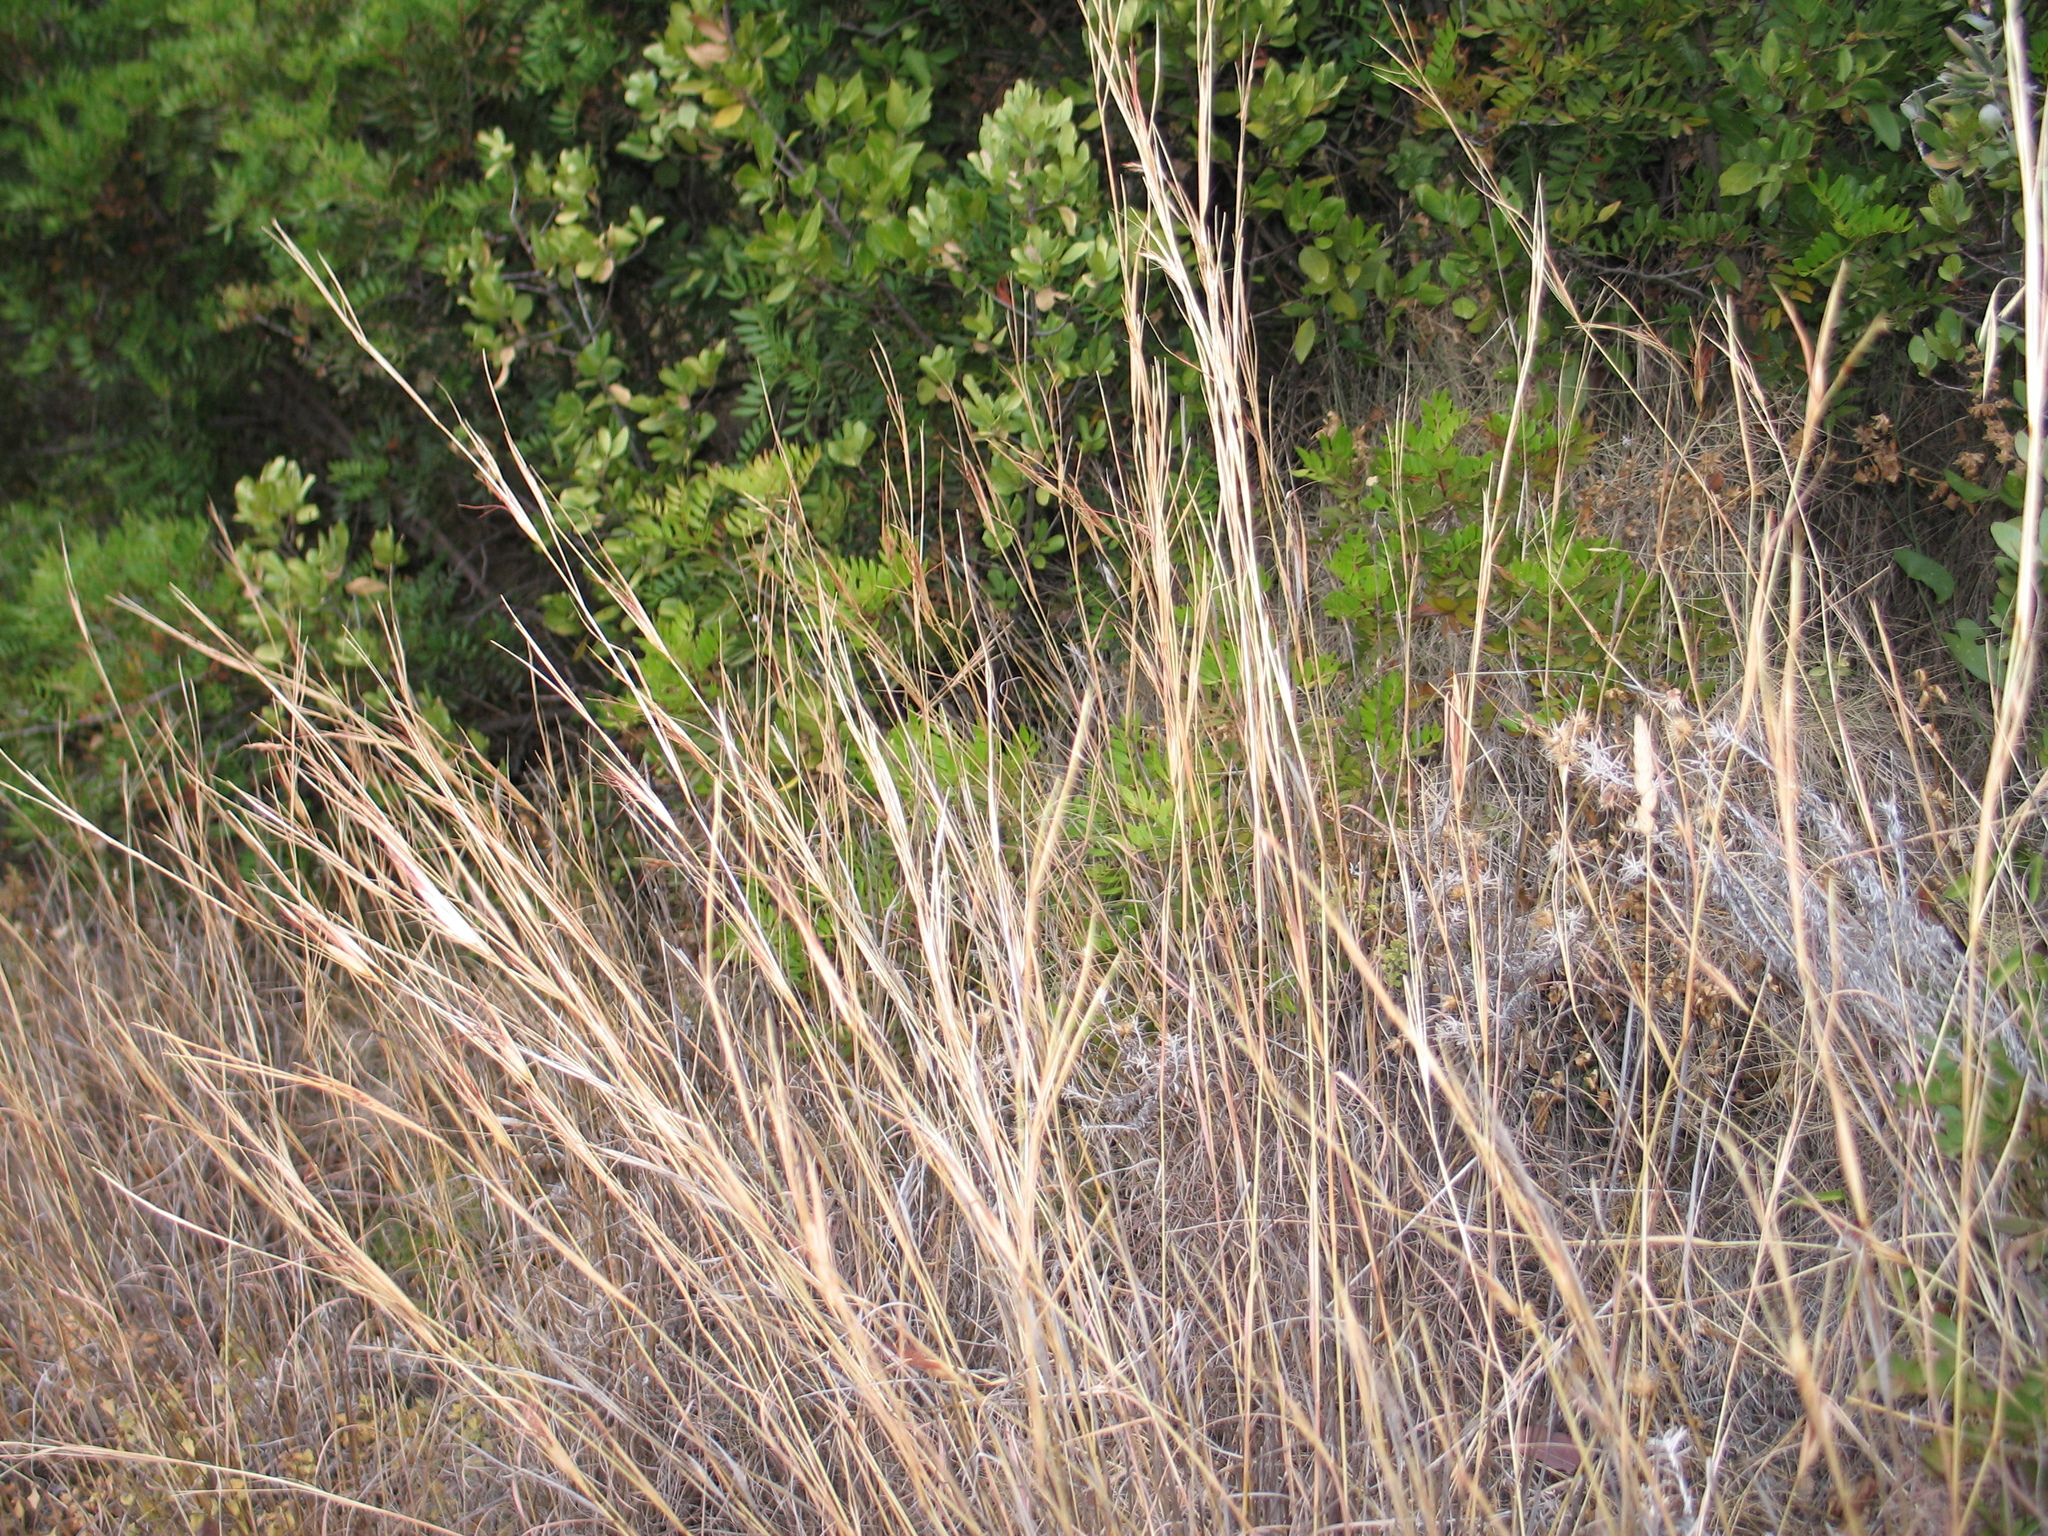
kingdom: Plantae
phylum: Tracheophyta
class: Liliopsida
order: Poales
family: Poaceae
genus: Hyparrhenia
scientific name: Hyparrhenia hirta
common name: Thatching grass
